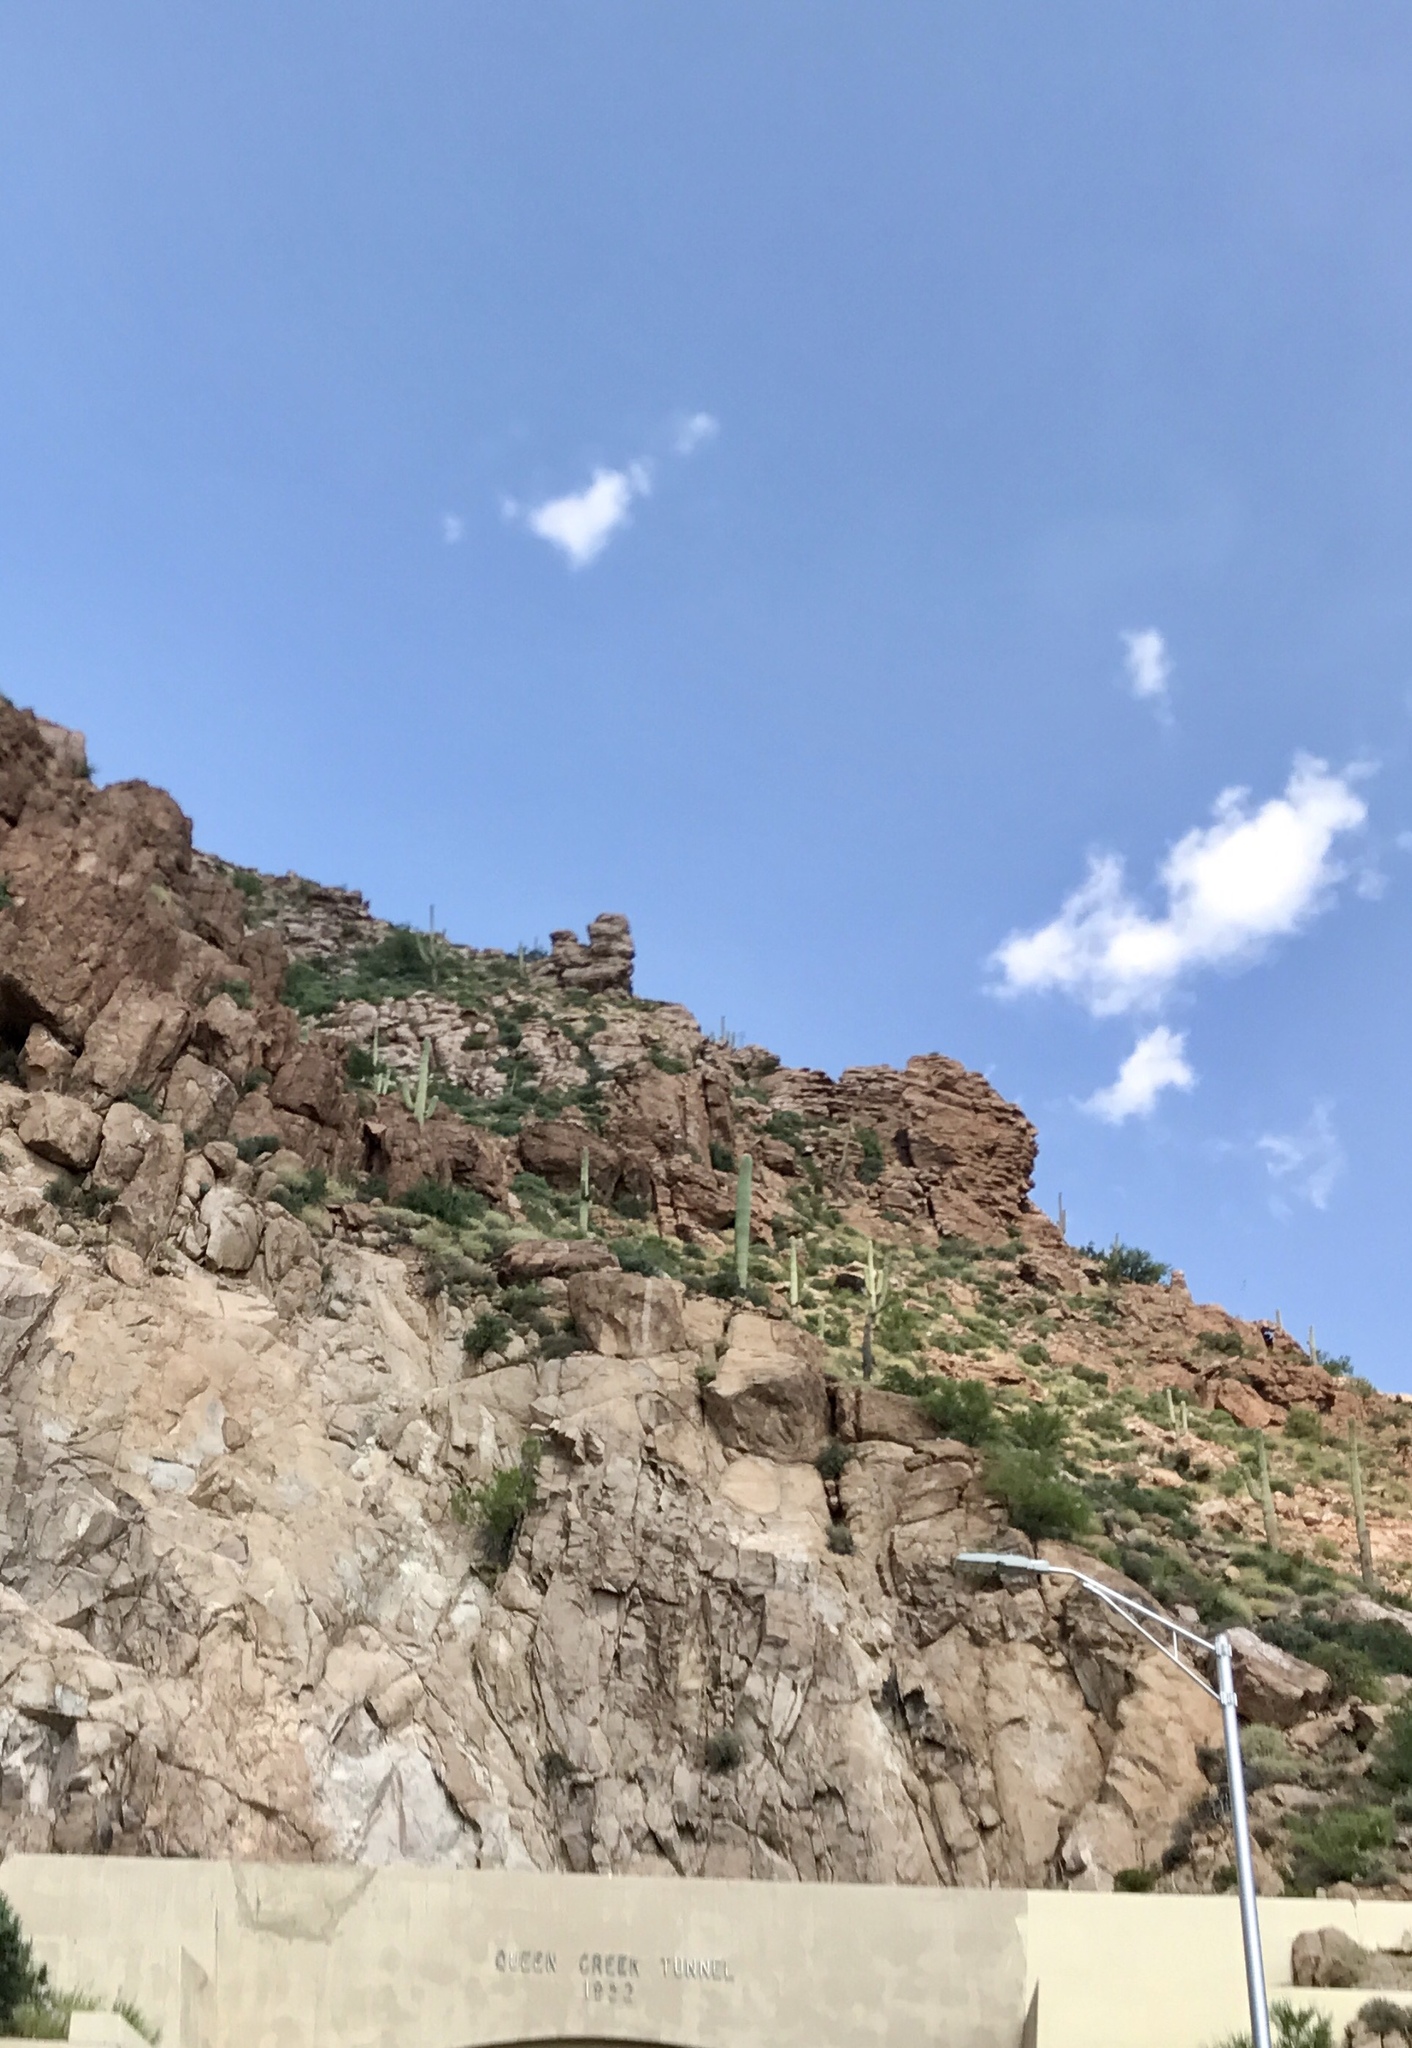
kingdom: Plantae
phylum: Tracheophyta
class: Magnoliopsida
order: Caryophyllales
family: Cactaceae
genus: Carnegiea
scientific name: Carnegiea gigantea
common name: Saguaro
